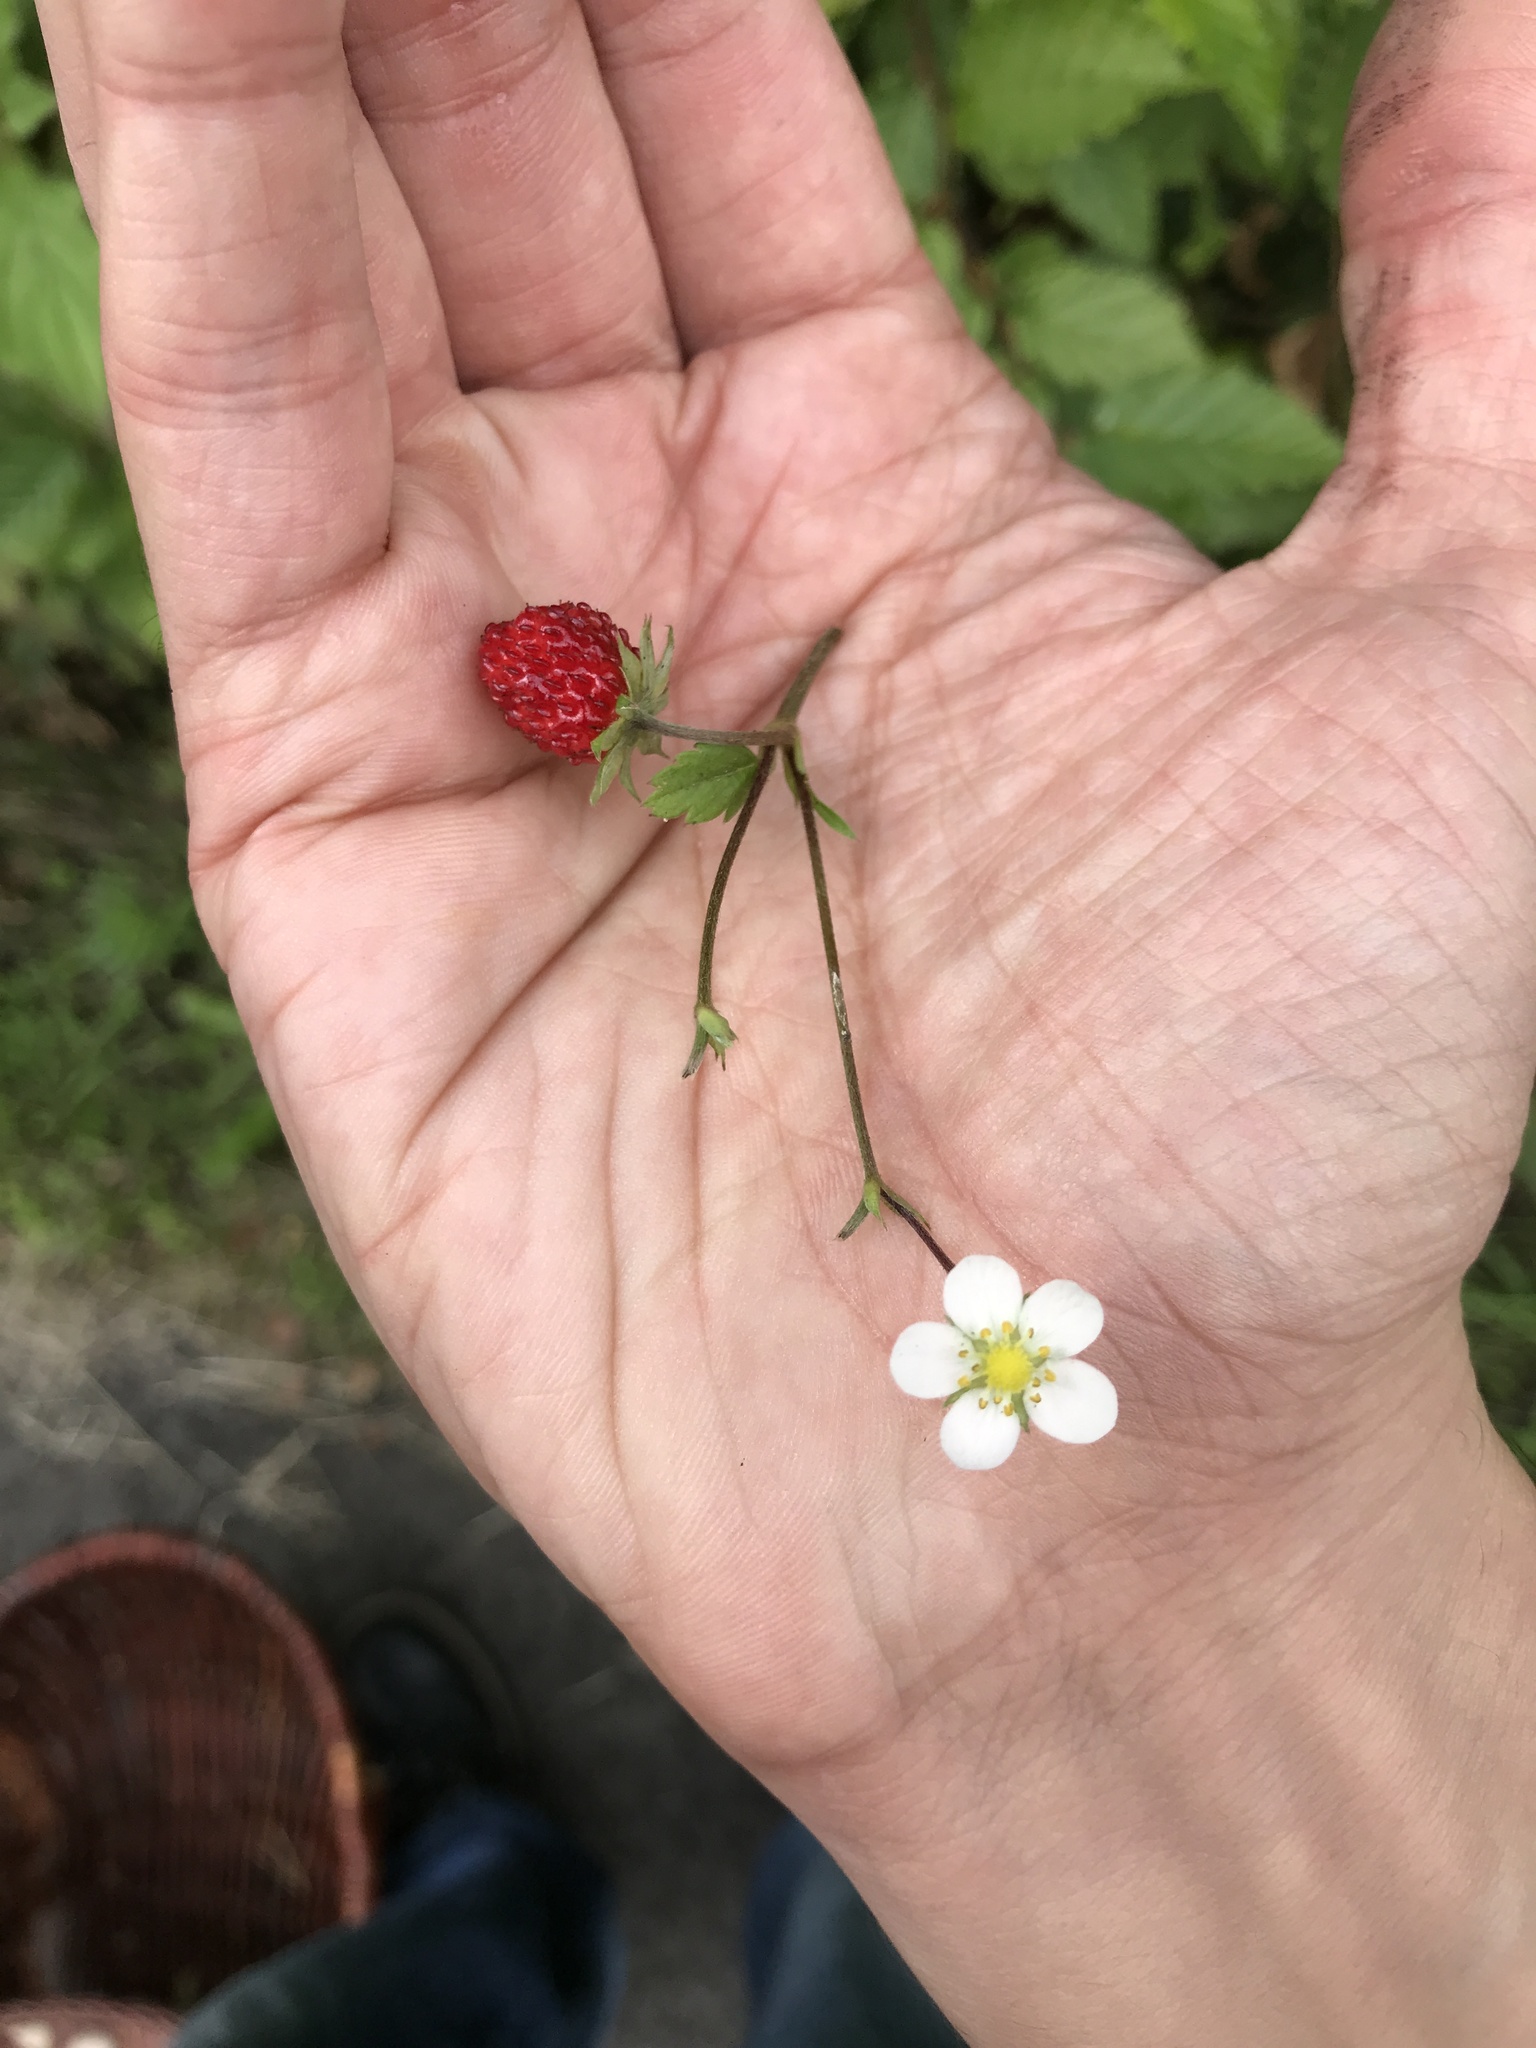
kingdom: Plantae
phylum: Tracheophyta
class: Magnoliopsida
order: Rosales
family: Rosaceae
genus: Fragaria
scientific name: Fragaria vesca
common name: Wild strawberry
